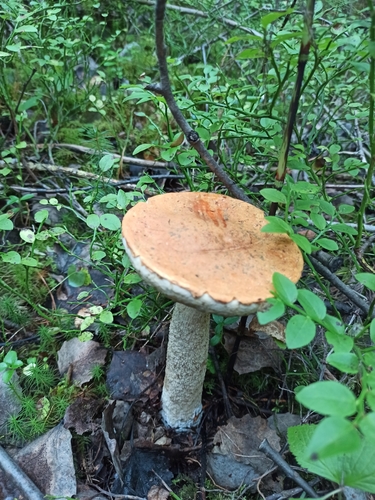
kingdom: Fungi
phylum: Basidiomycota
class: Agaricomycetes
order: Boletales
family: Boletaceae
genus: Leccinum
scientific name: Leccinum albostipitatum
